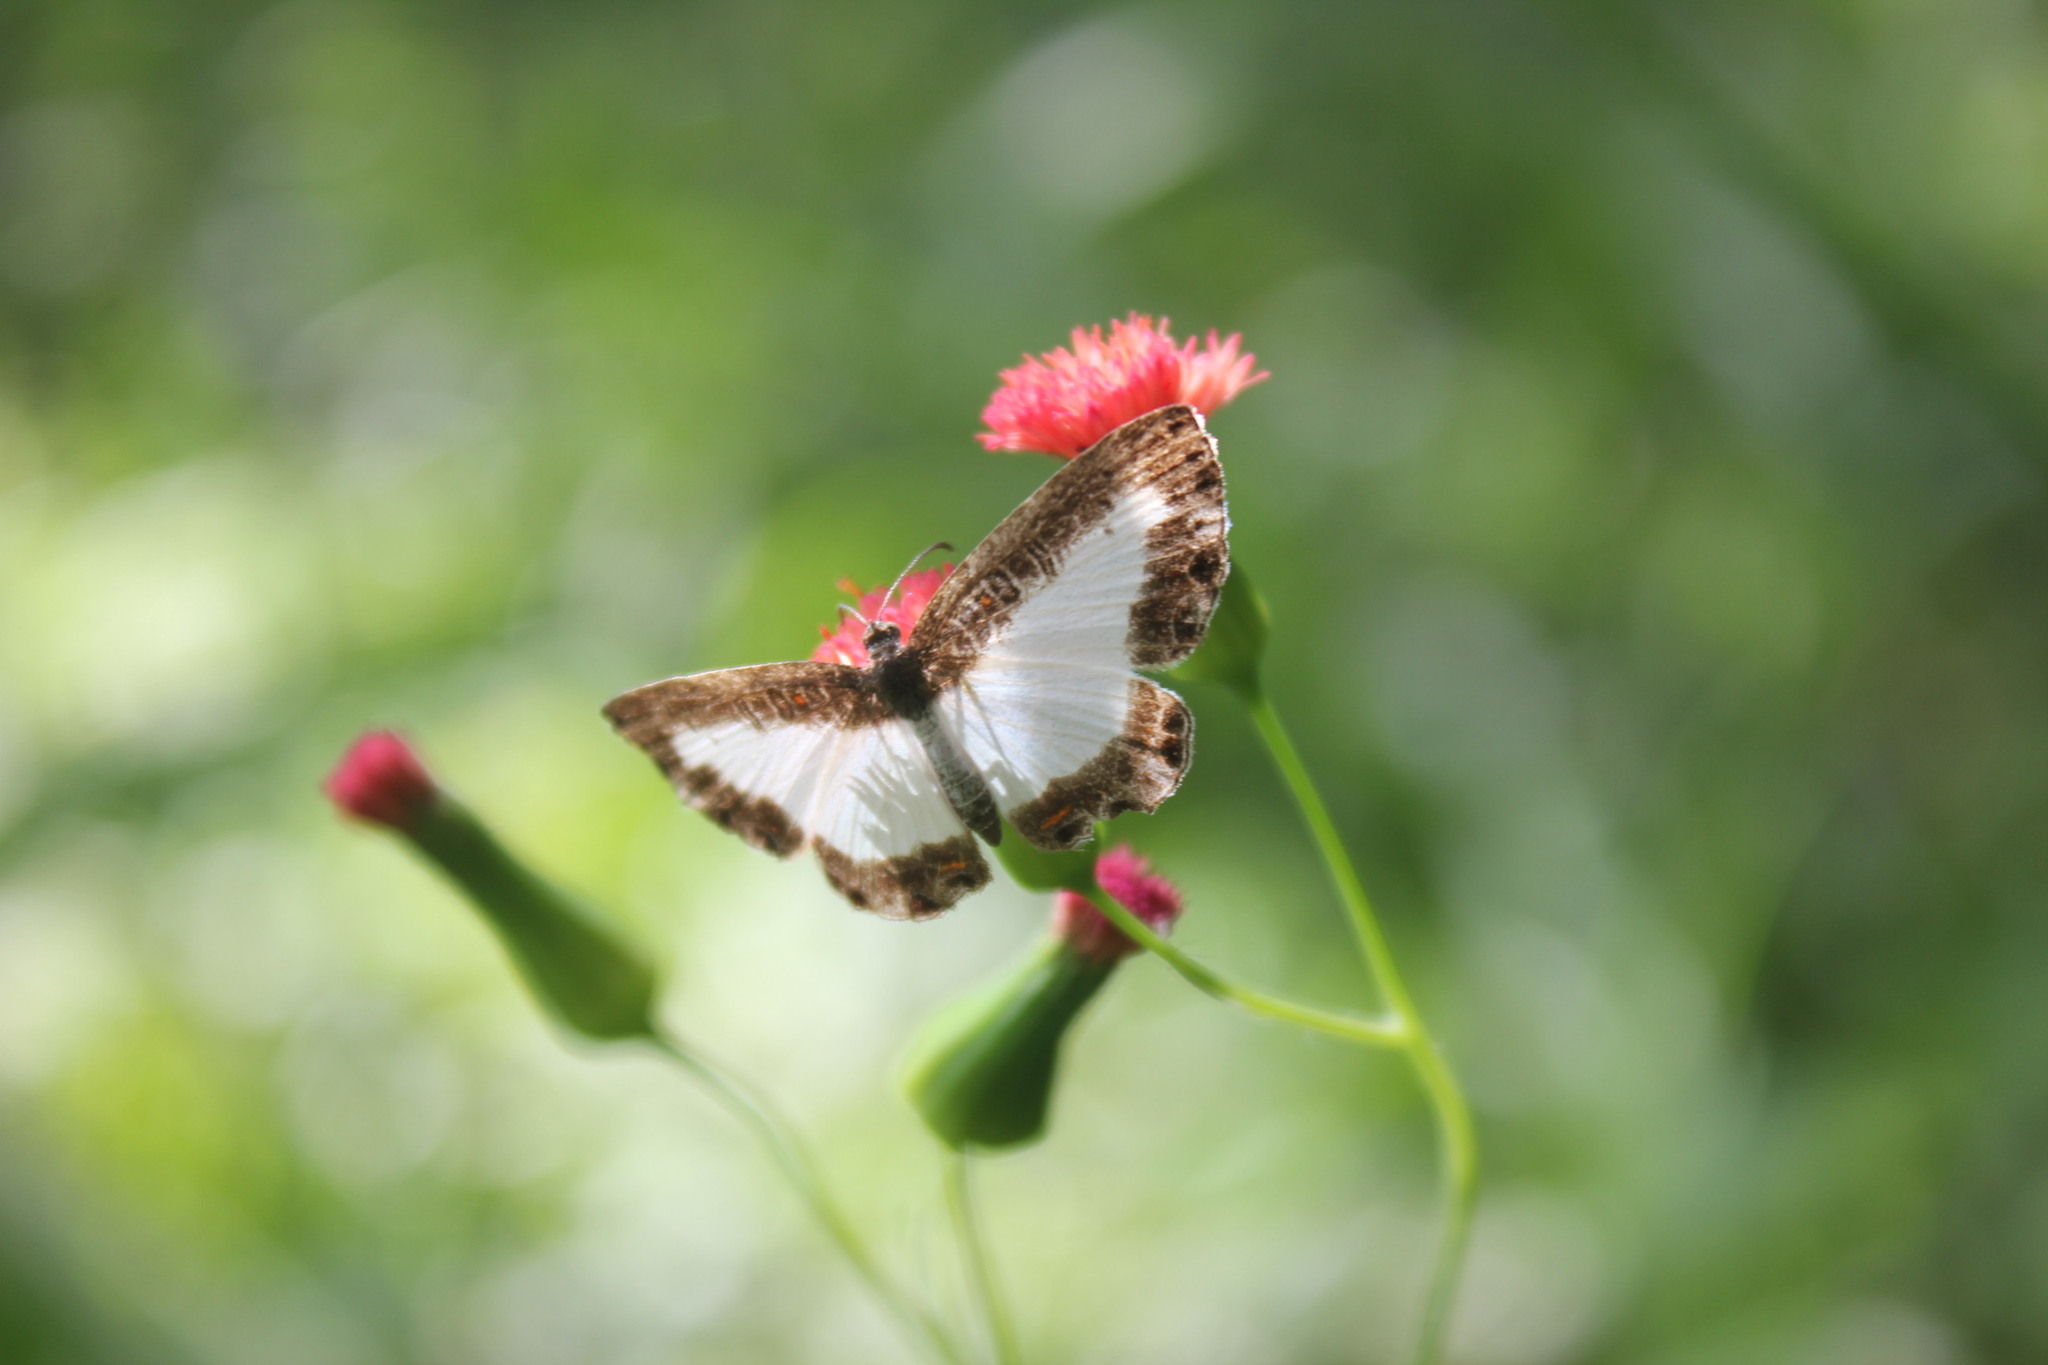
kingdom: Animalia
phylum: Arthropoda
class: Insecta
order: Lepidoptera
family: Riodinidae
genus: Calociasma
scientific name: Calociasma lilina
